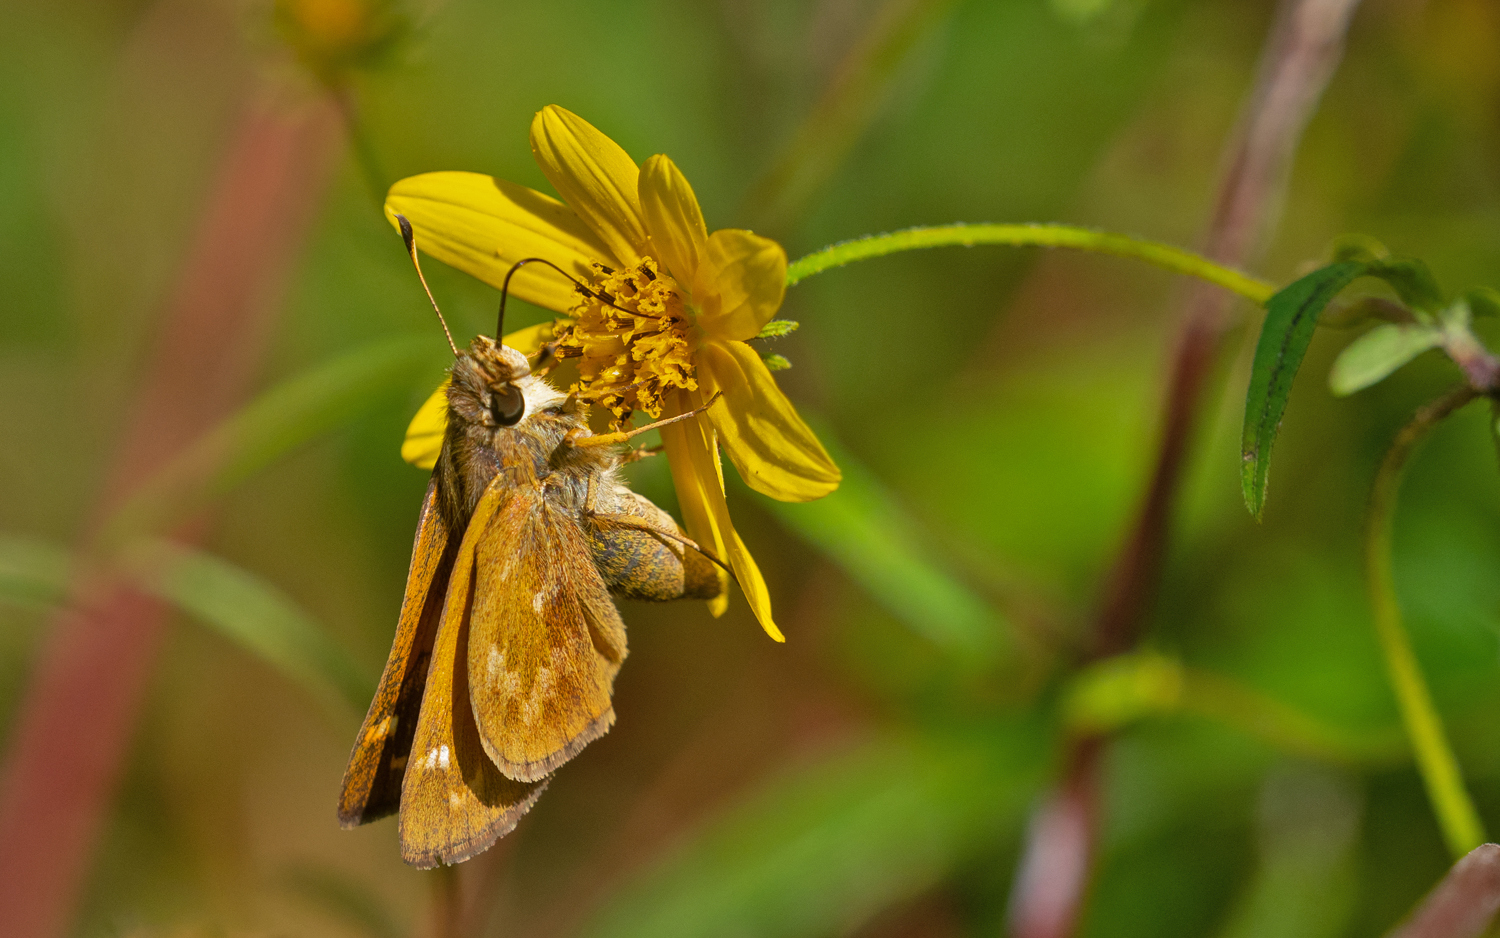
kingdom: Animalia
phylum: Arthropoda
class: Insecta
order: Lepidoptera
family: Hesperiidae
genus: Atalopedes
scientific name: Atalopedes
